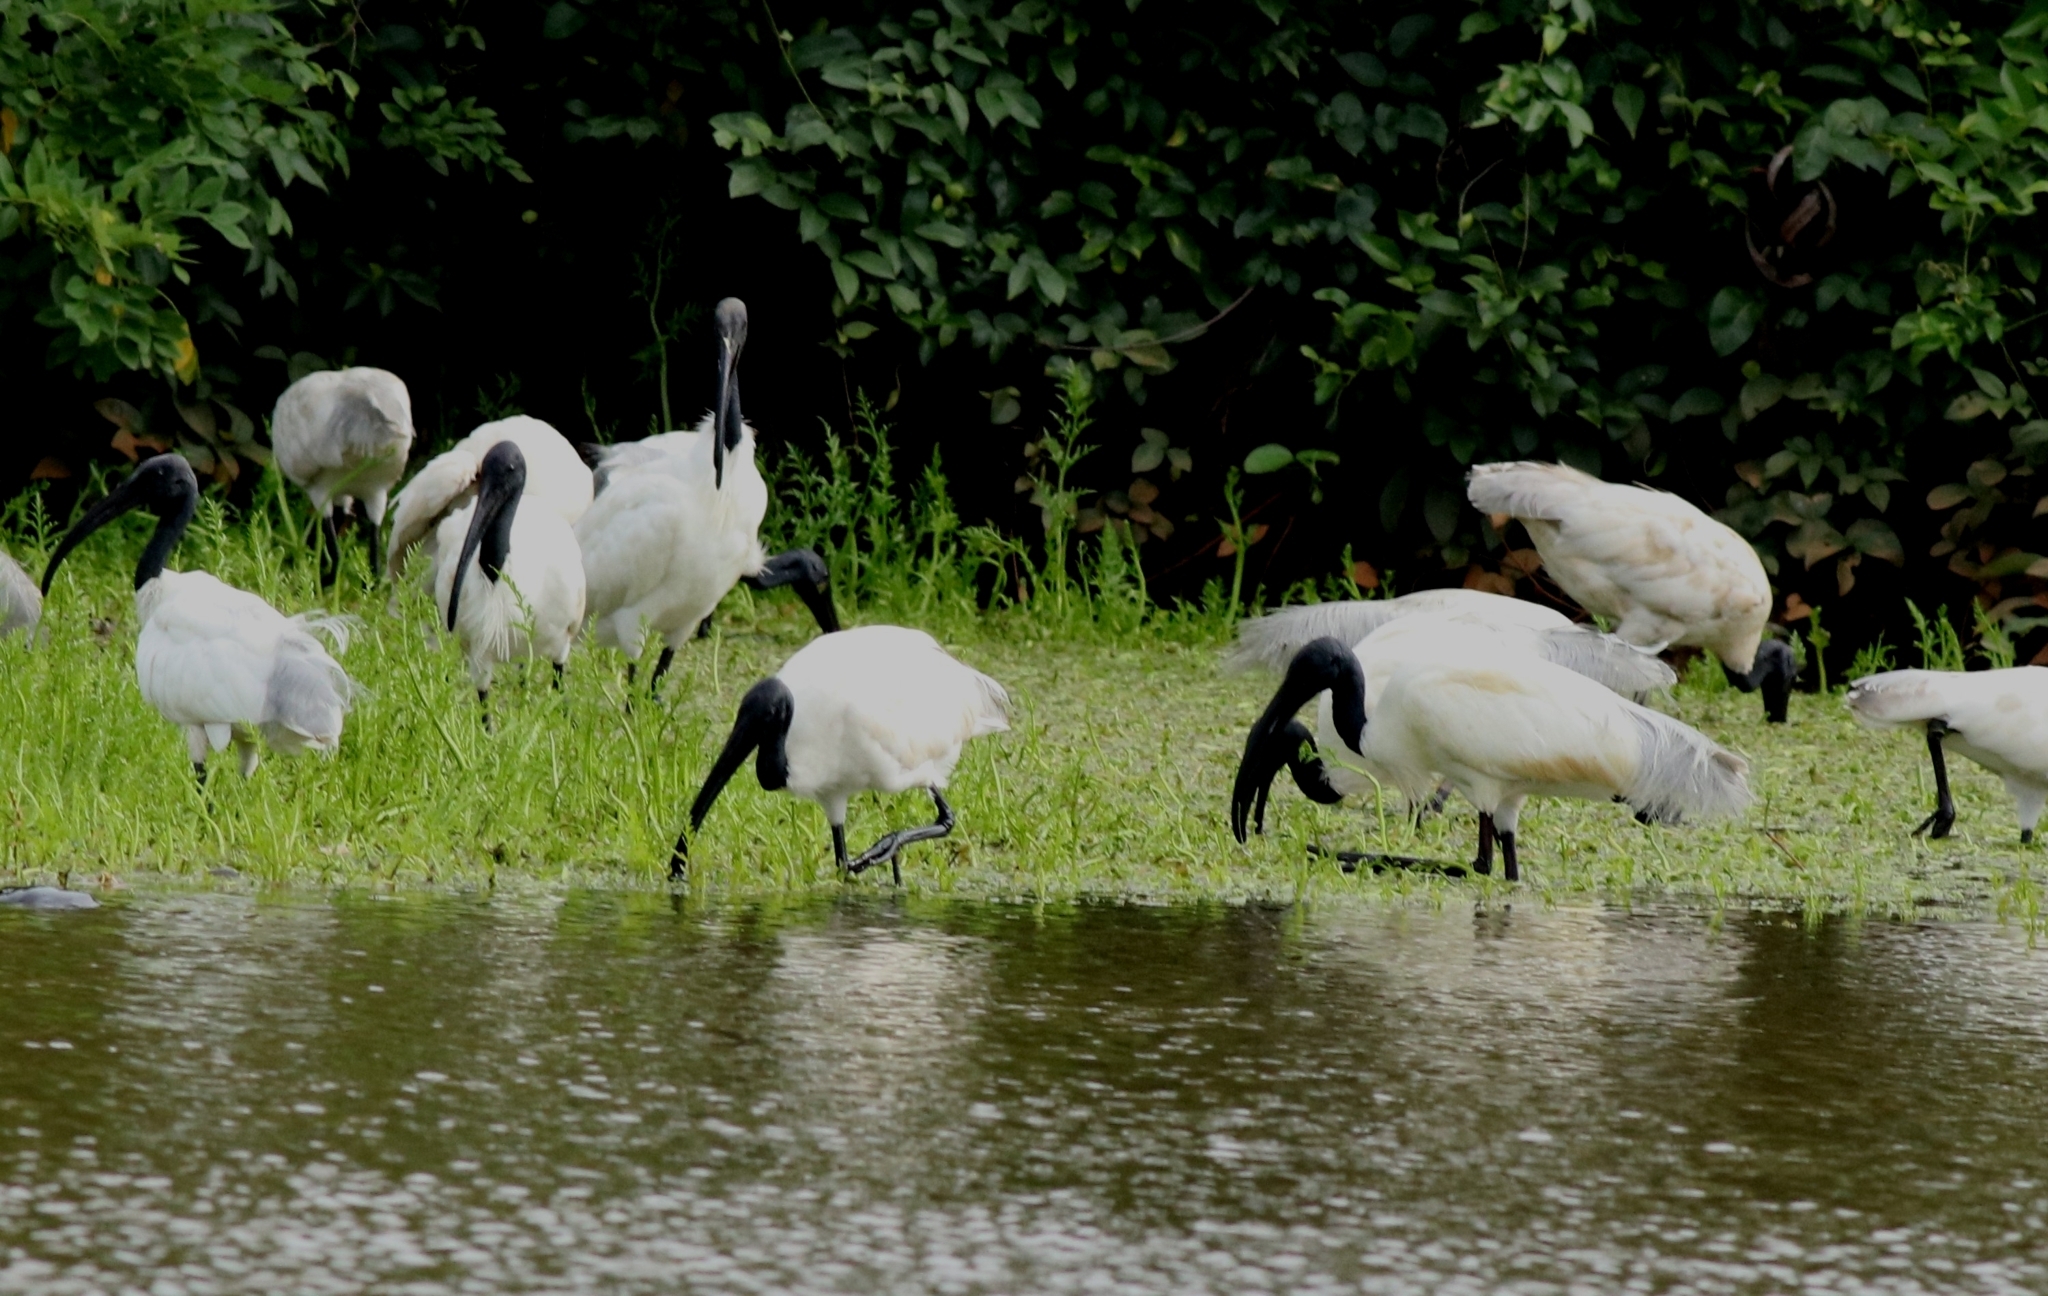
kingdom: Animalia
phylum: Chordata
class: Aves
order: Pelecaniformes
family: Threskiornithidae
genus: Threskiornis
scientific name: Threskiornis melanocephalus
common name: Black-headed ibis
